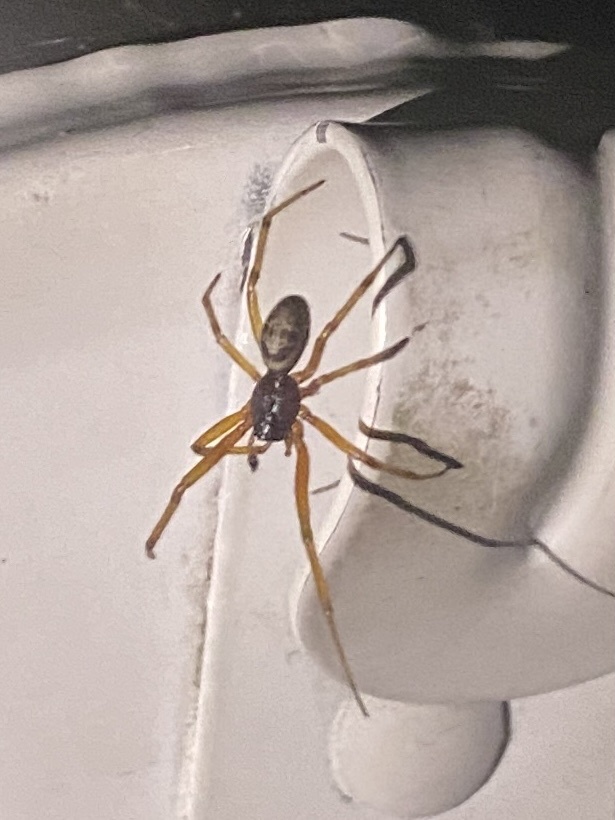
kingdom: Animalia
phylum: Arthropoda
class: Arachnida
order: Araneae
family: Theridiidae
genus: Steatoda
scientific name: Steatoda nobilis
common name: Cobweb weaver
